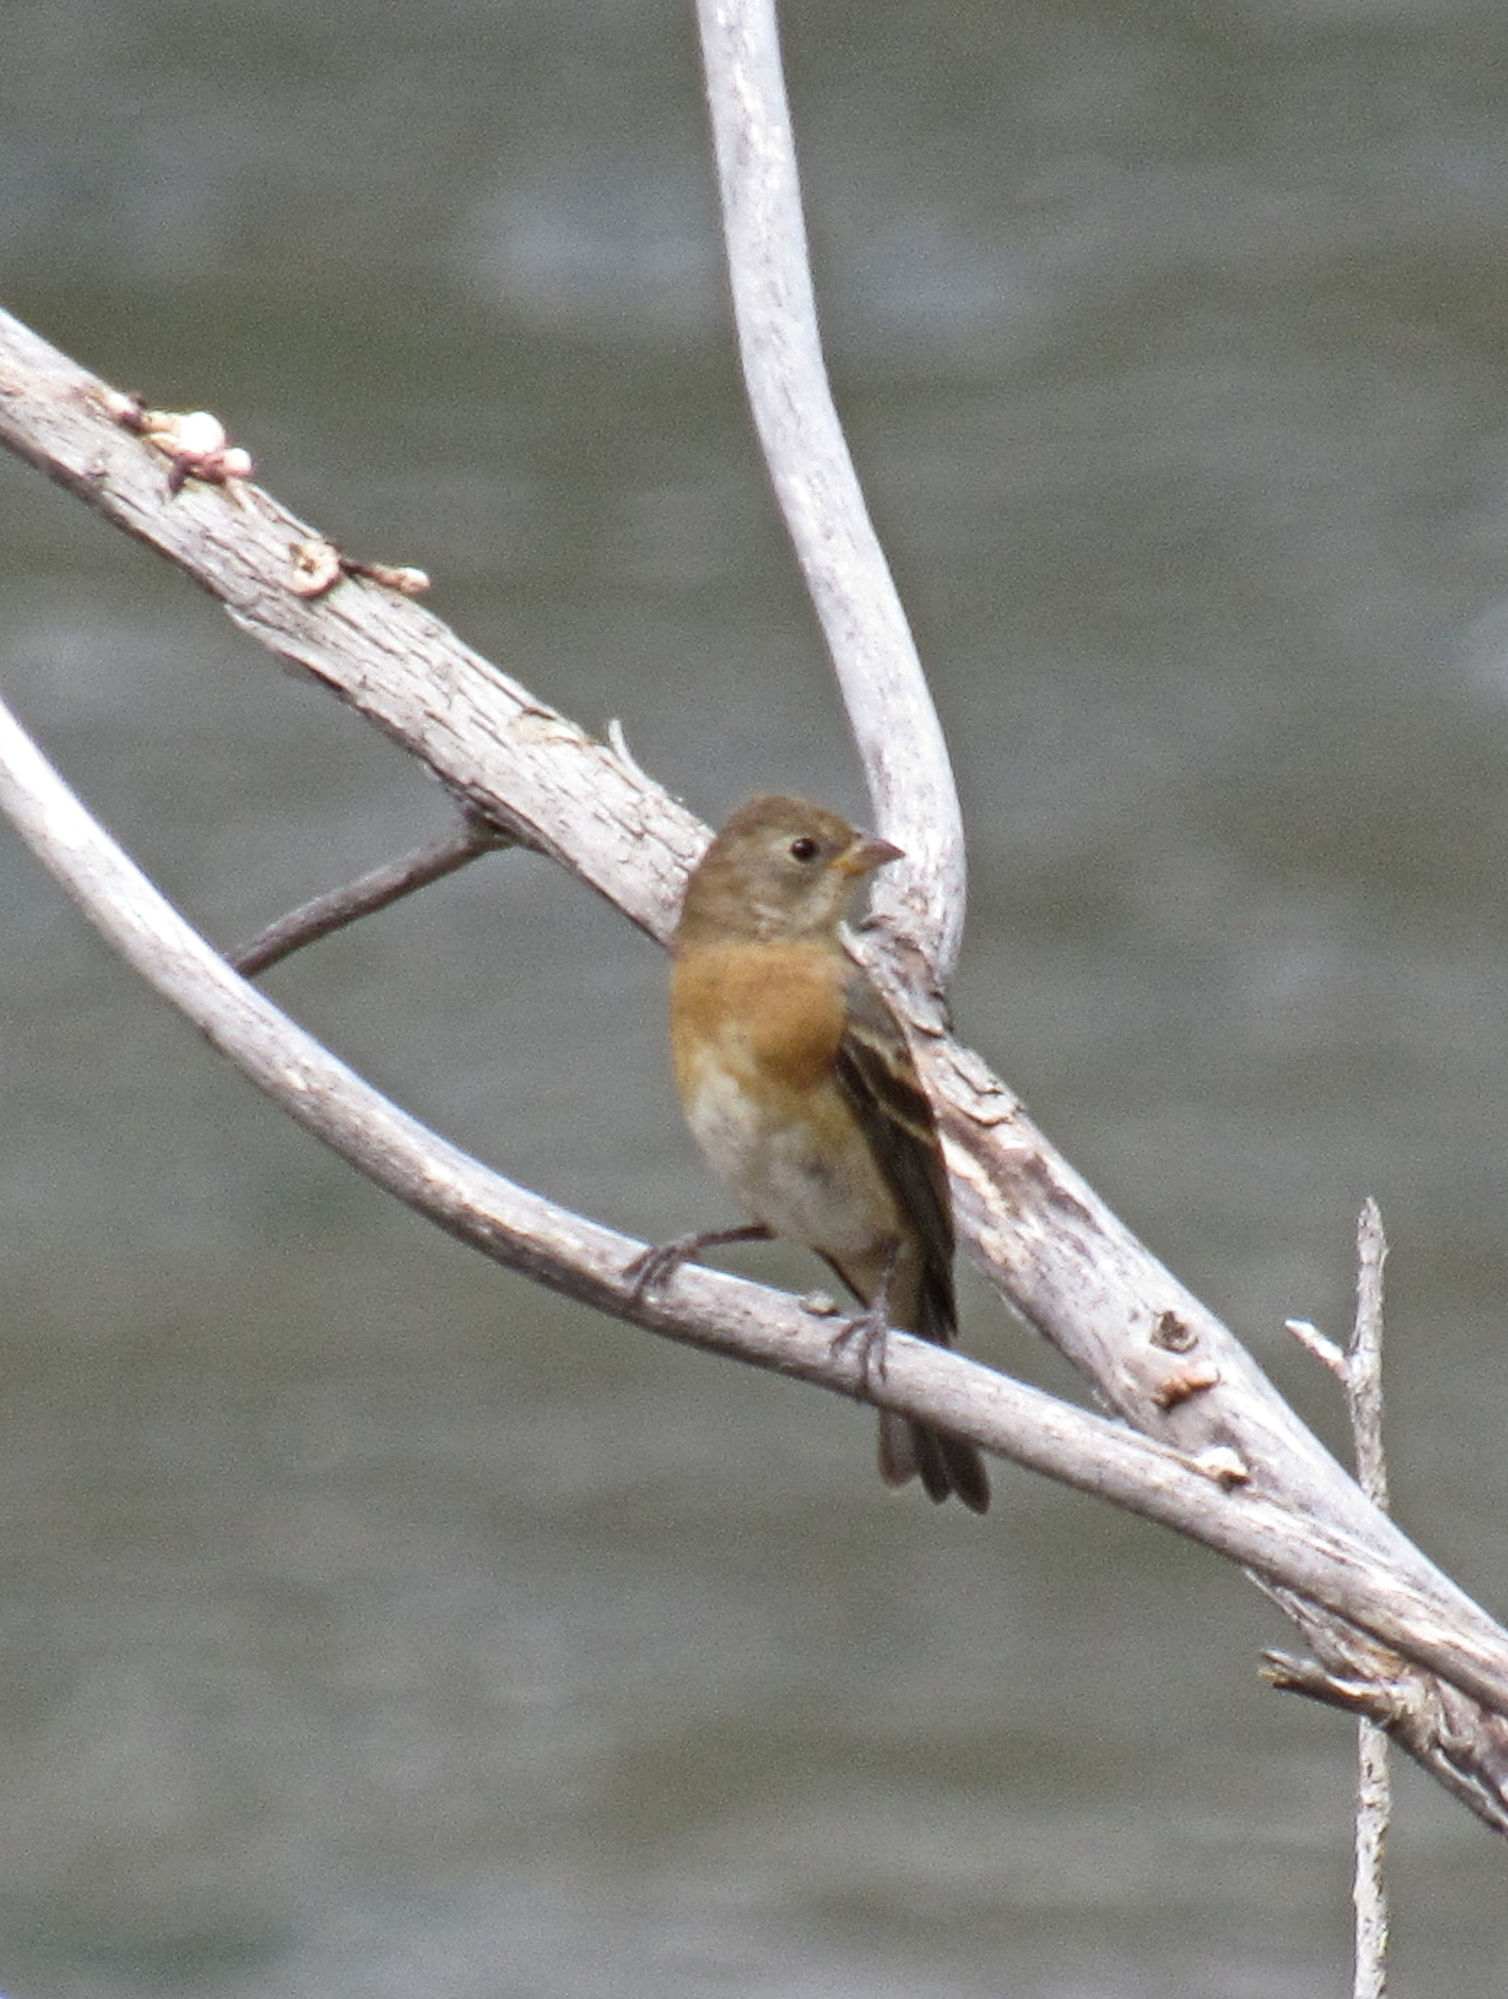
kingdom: Animalia
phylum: Chordata
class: Aves
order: Passeriformes
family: Cardinalidae
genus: Passerina
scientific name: Passerina amoena
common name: Lazuli bunting
